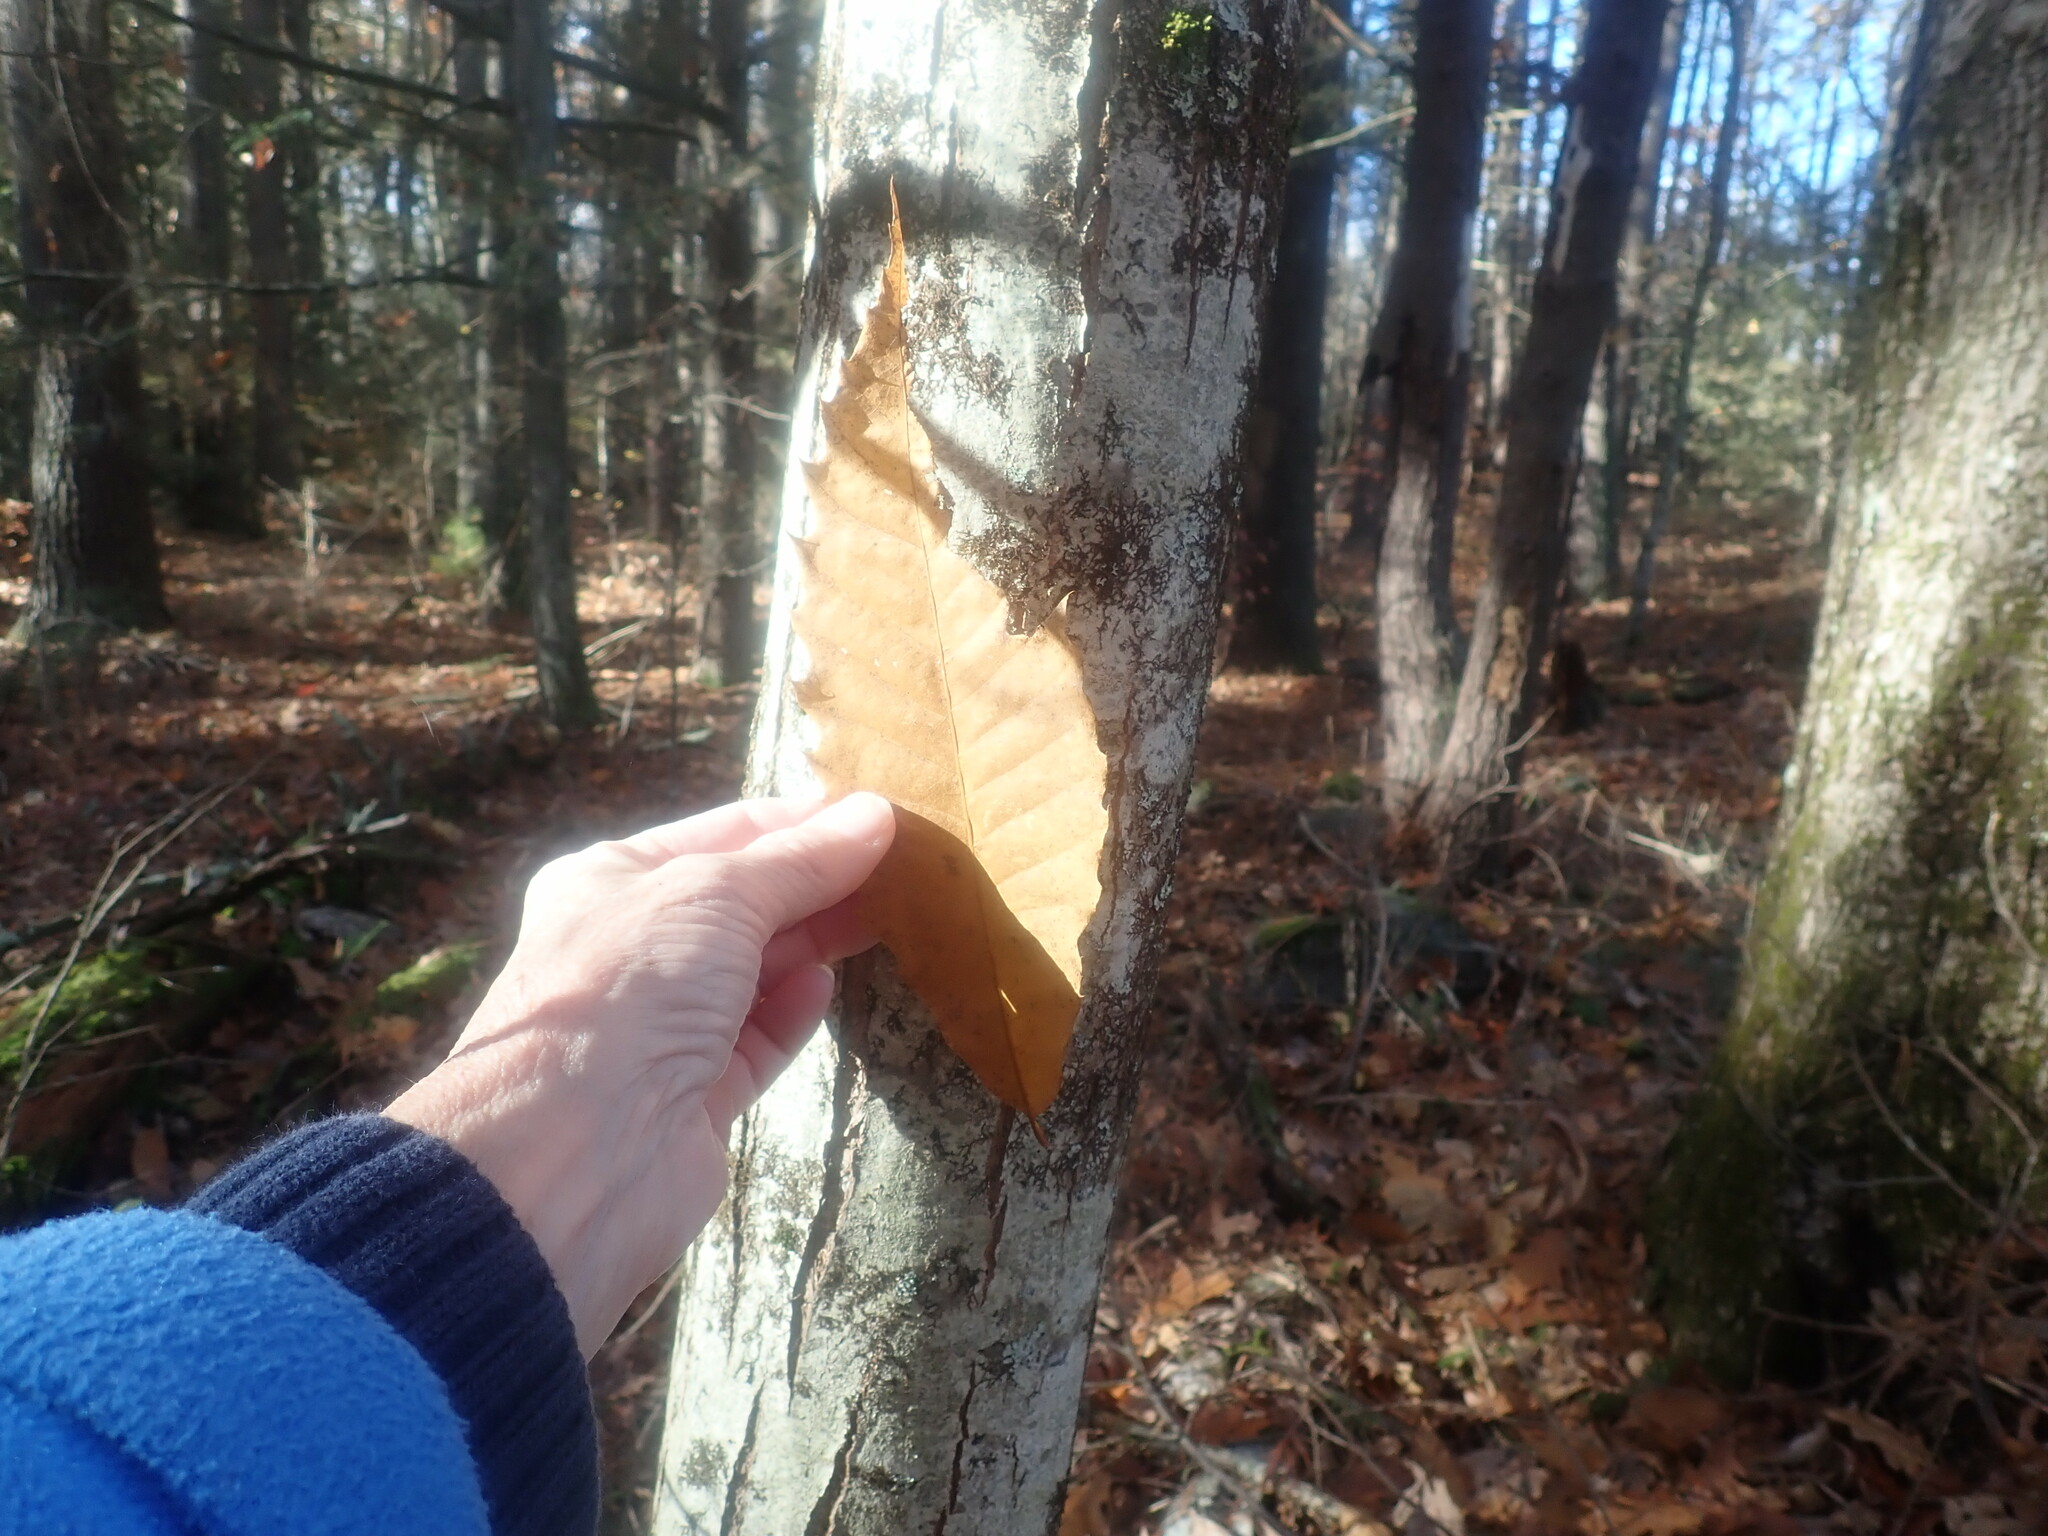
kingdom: Plantae
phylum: Tracheophyta
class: Magnoliopsida
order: Fagales
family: Fagaceae
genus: Castanea
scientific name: Castanea dentata
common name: American chestnut
